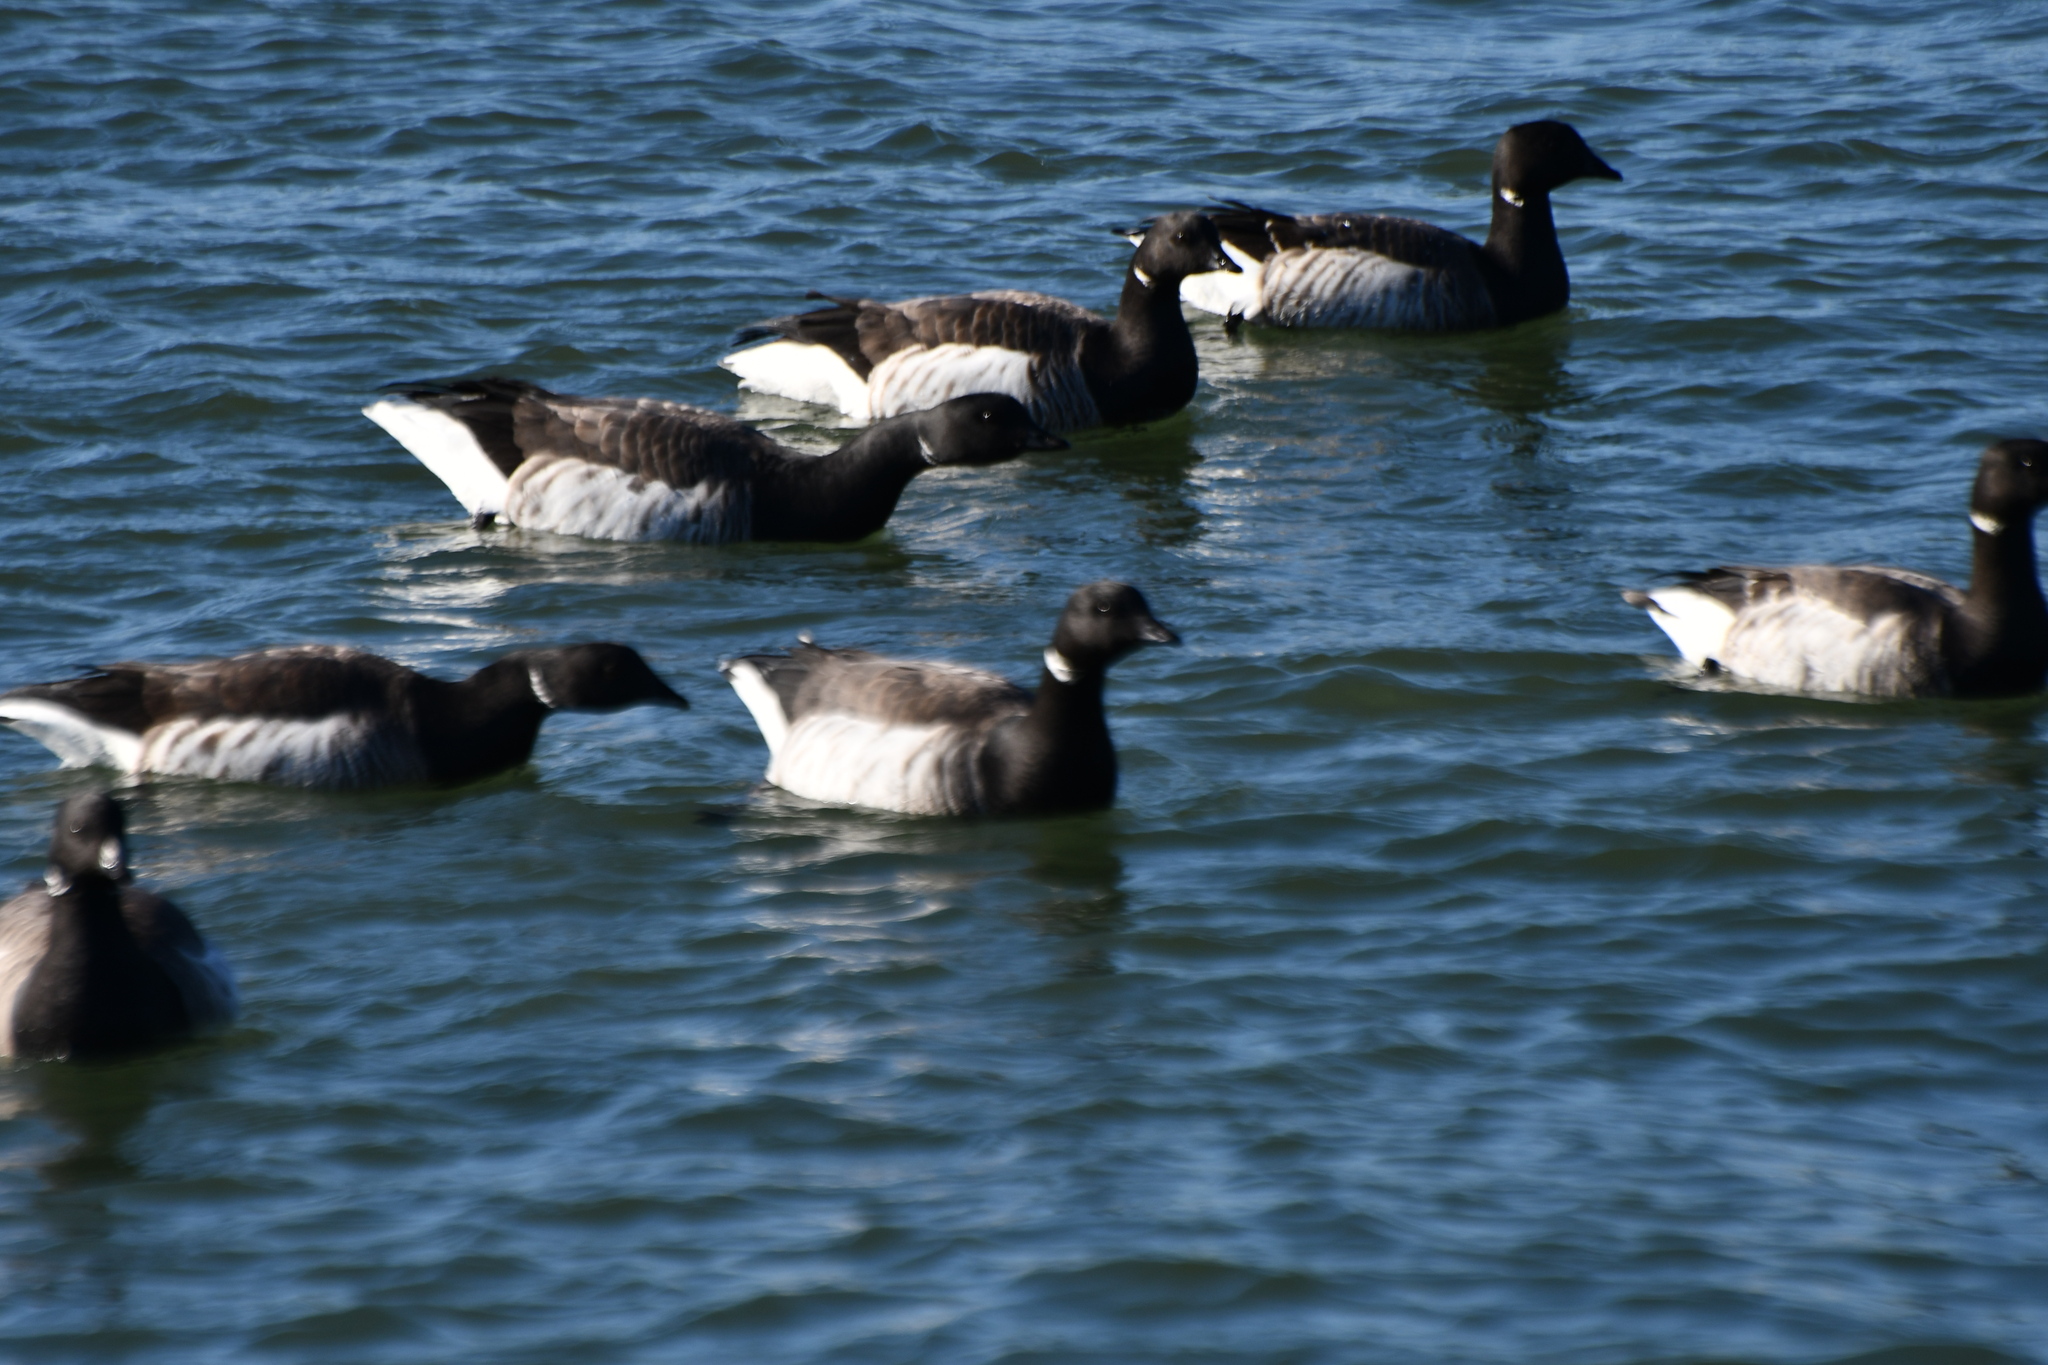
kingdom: Animalia
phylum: Chordata
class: Aves
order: Anseriformes
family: Anatidae
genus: Branta
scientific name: Branta bernicla
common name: Brant goose
